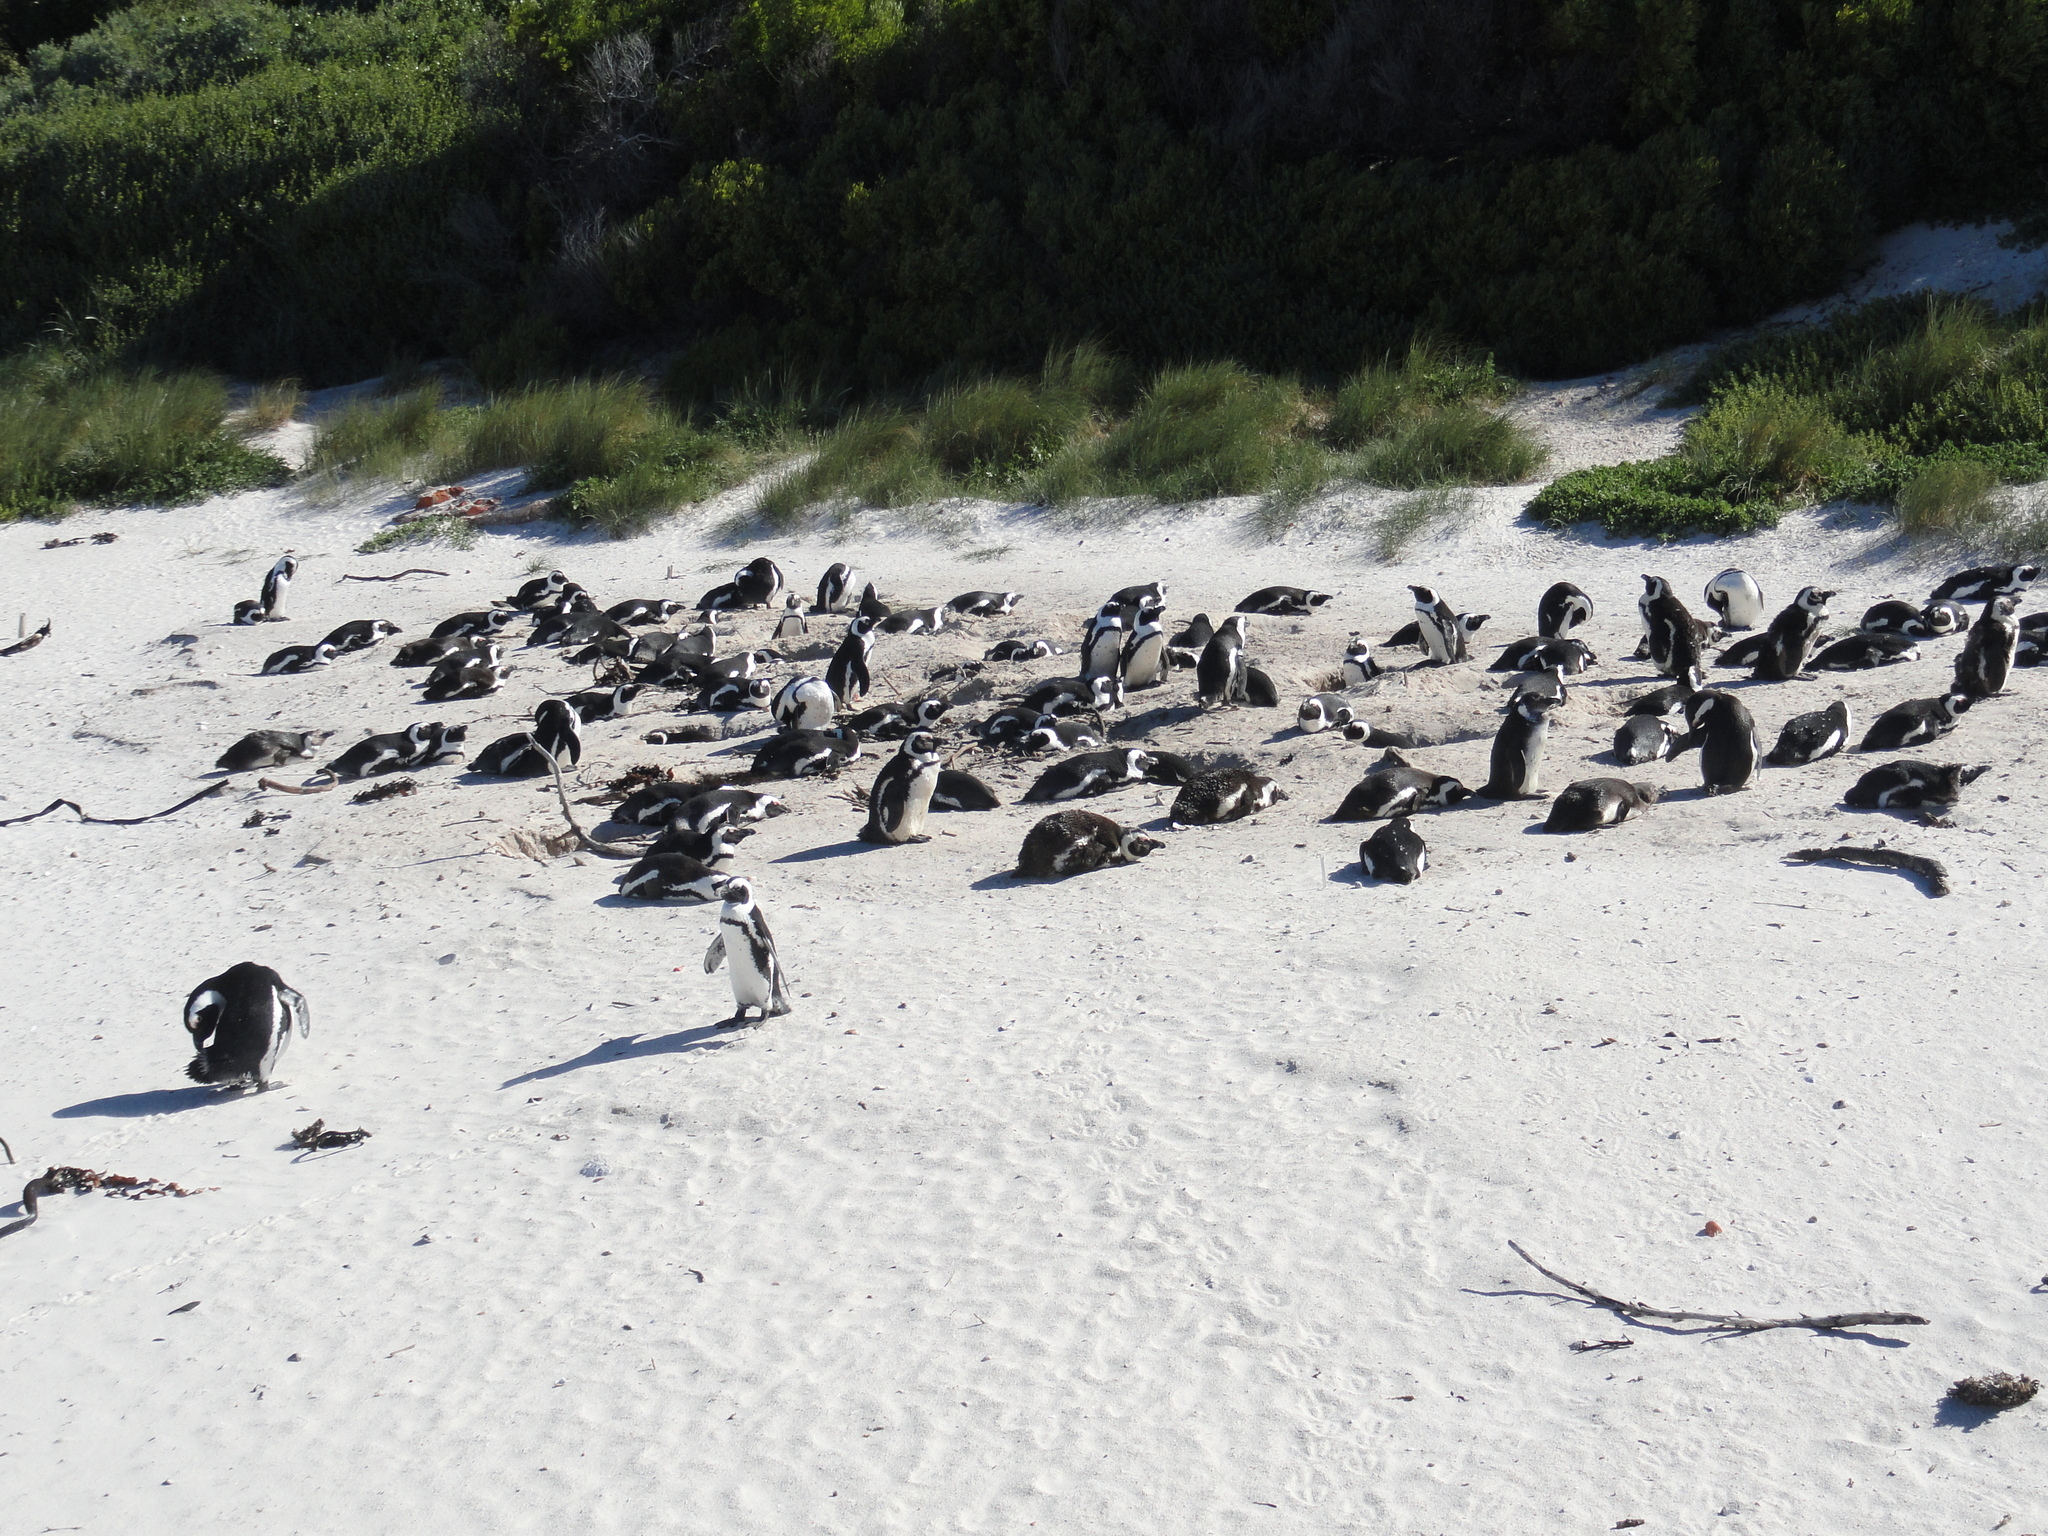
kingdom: Animalia
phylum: Chordata
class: Aves
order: Sphenisciformes
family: Spheniscidae
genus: Spheniscus
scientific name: Spheniscus demersus
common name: African penguin
